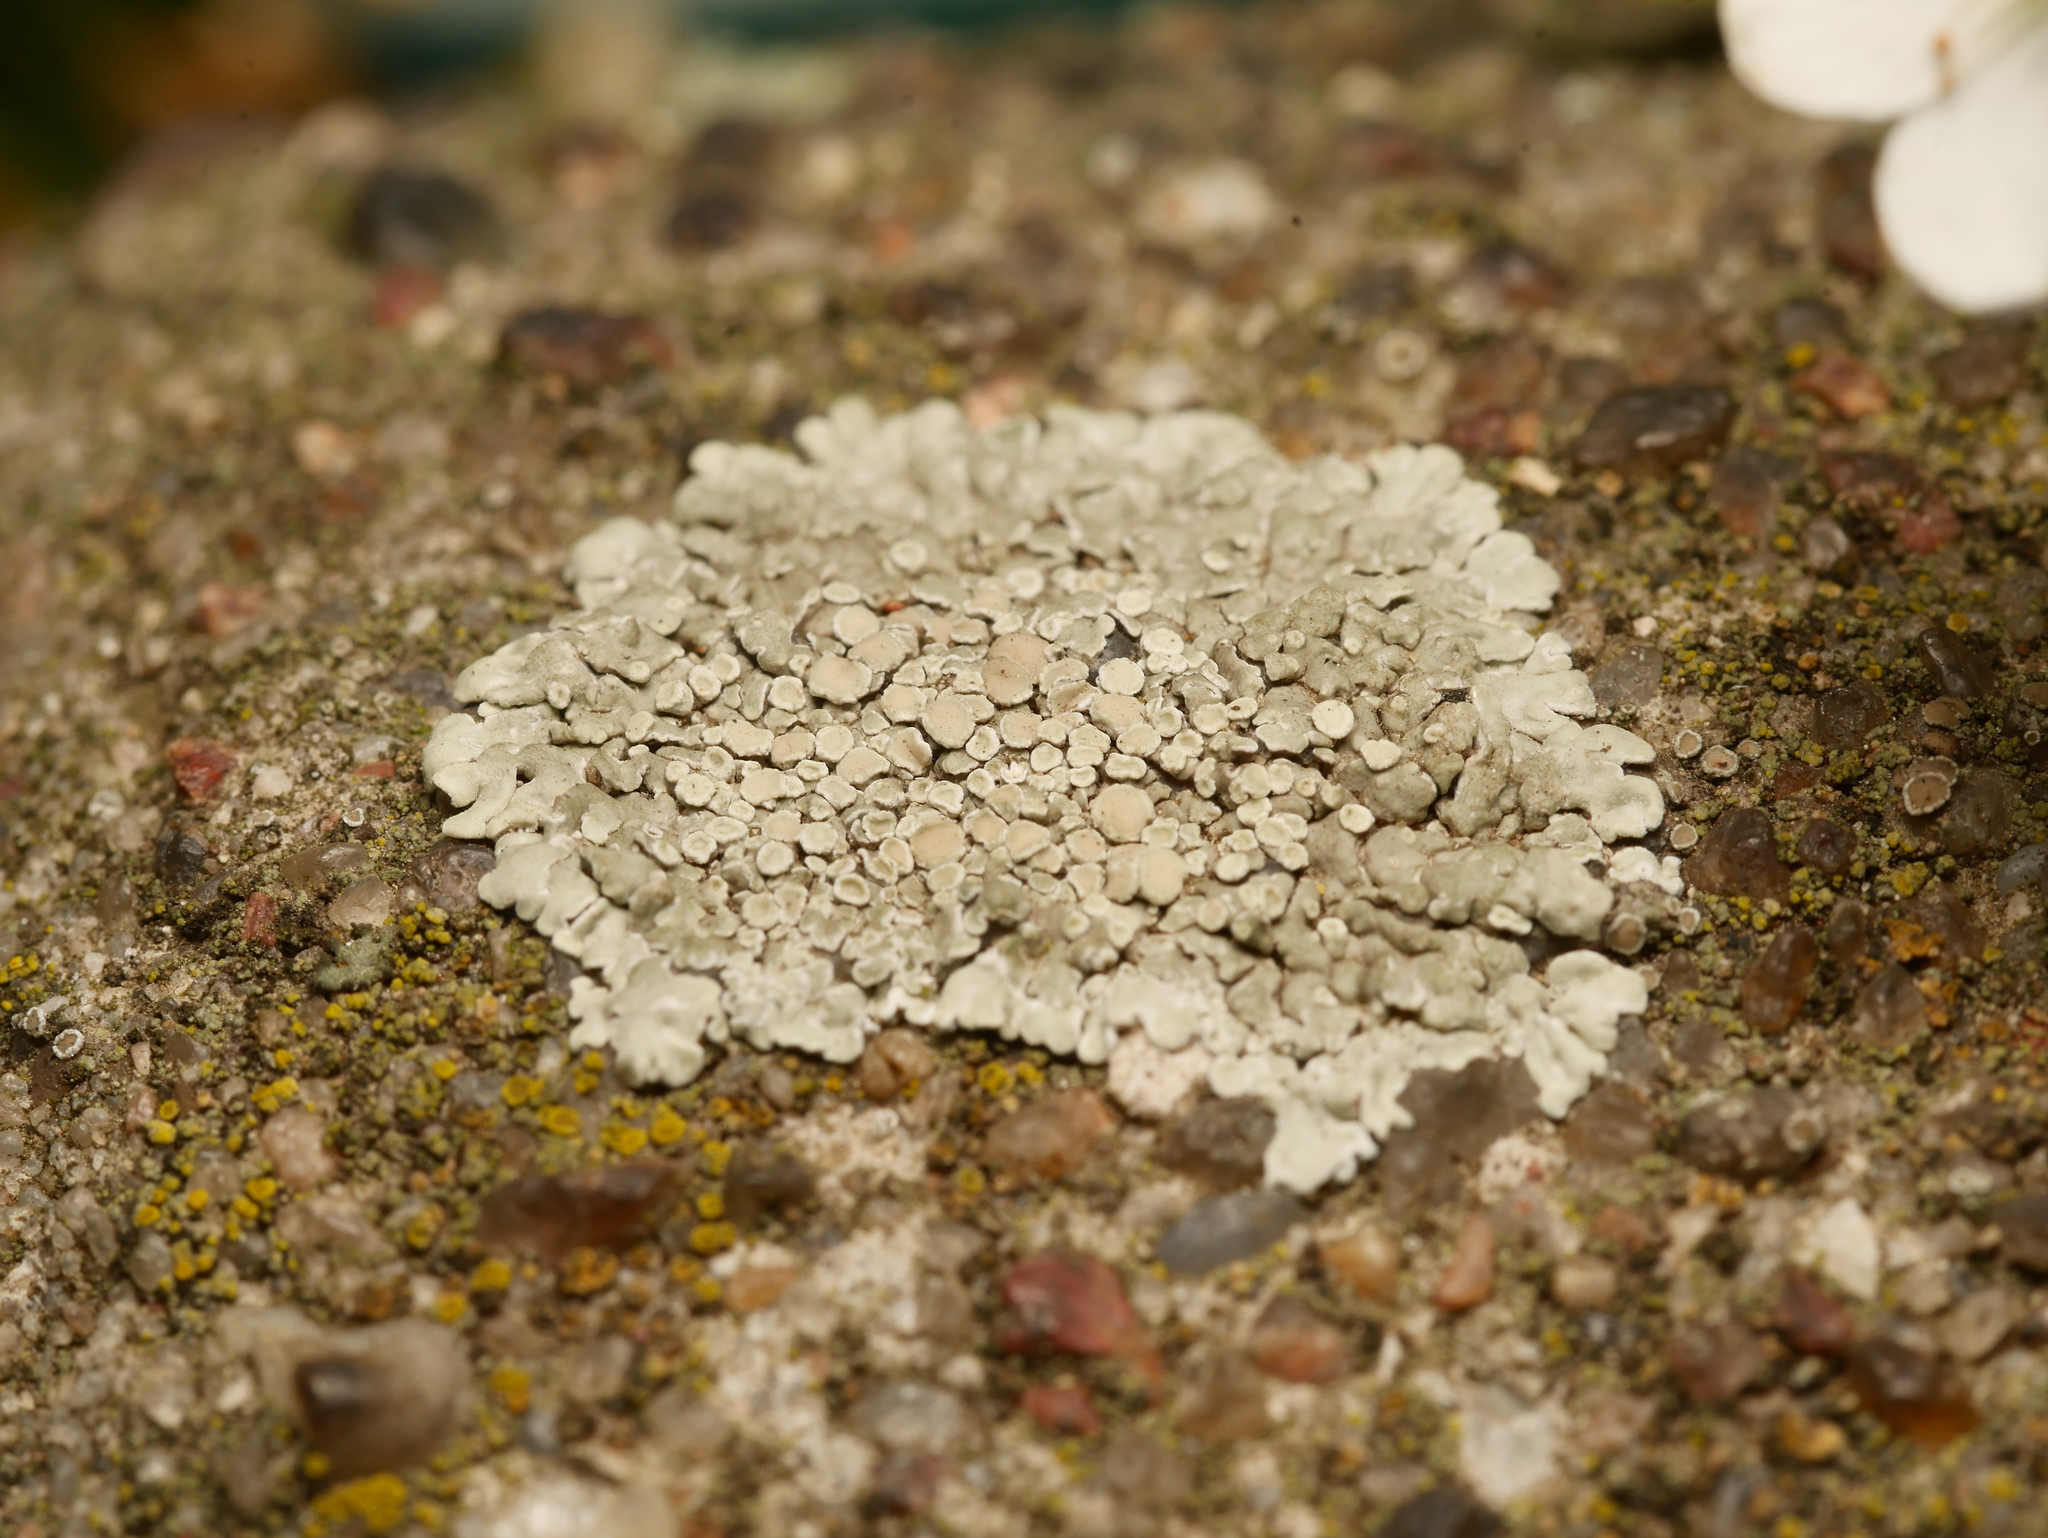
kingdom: Fungi
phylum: Ascomycota
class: Lecanoromycetes
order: Lecanorales
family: Lecanoraceae
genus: Protoparmeliopsis
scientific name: Protoparmeliopsis muralis
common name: Stonewall rim lichen
